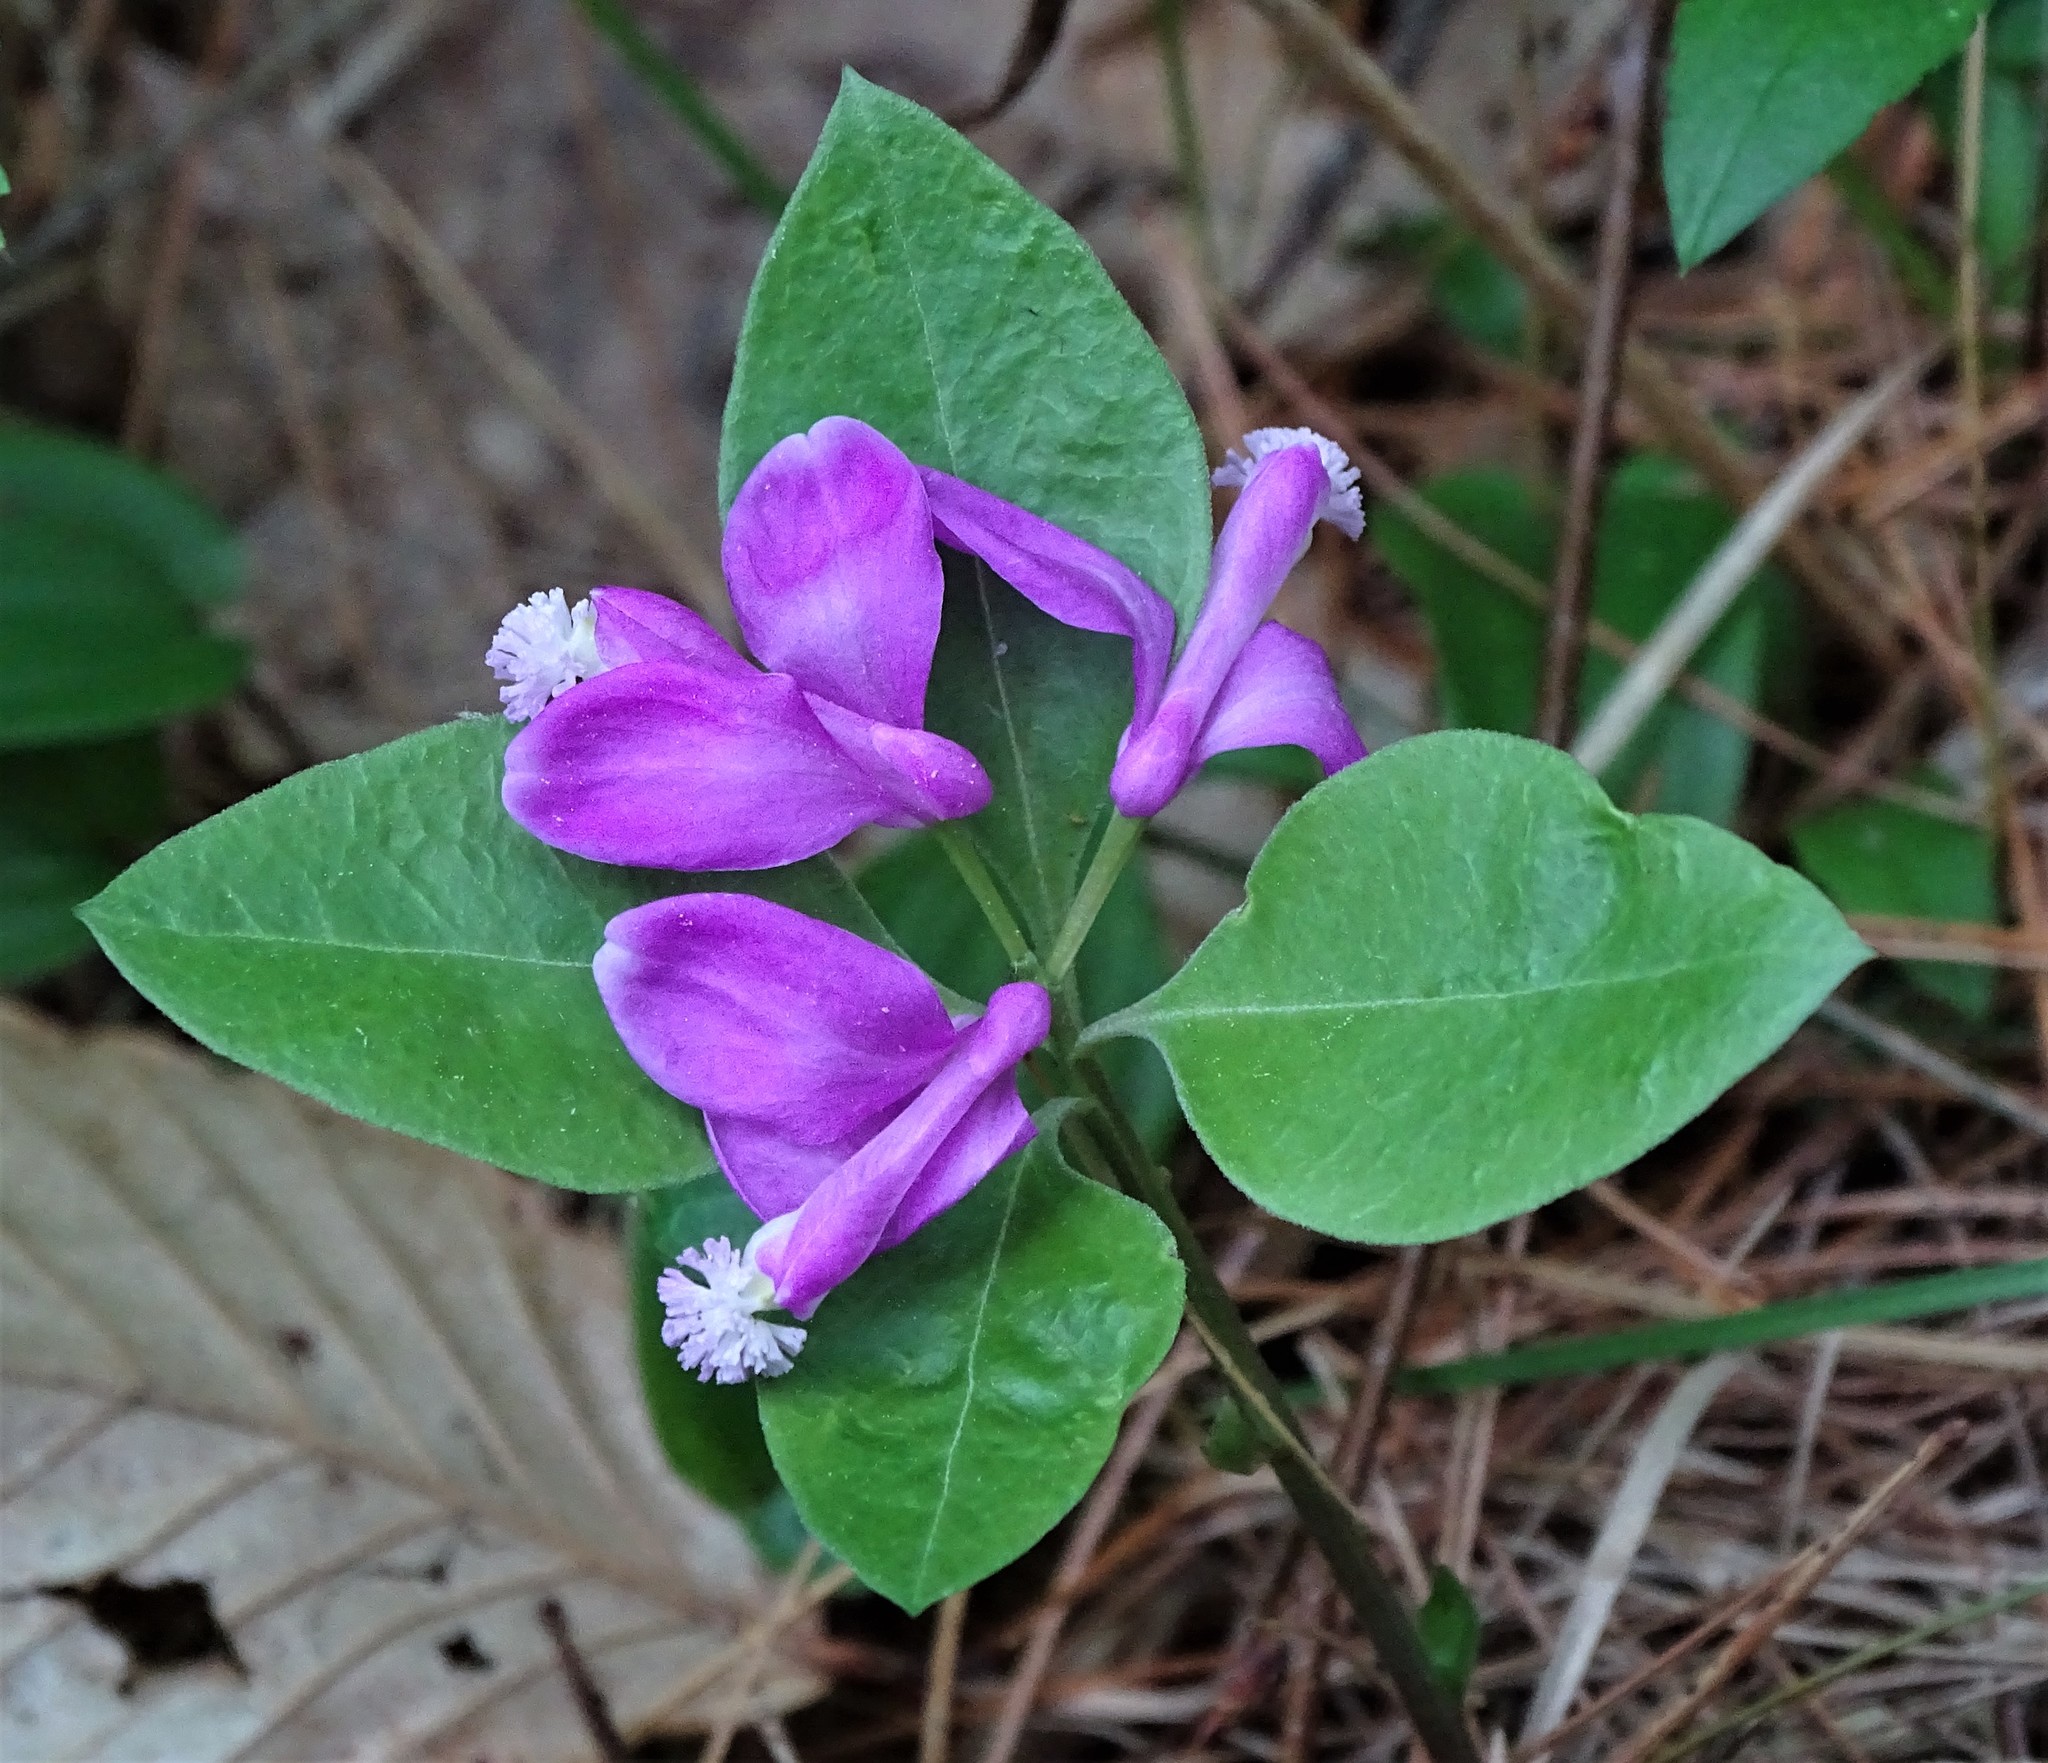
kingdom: Plantae
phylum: Tracheophyta
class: Magnoliopsida
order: Fabales
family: Polygalaceae
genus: Polygaloides
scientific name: Polygaloides paucifolia
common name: Bird-on-the-wing
